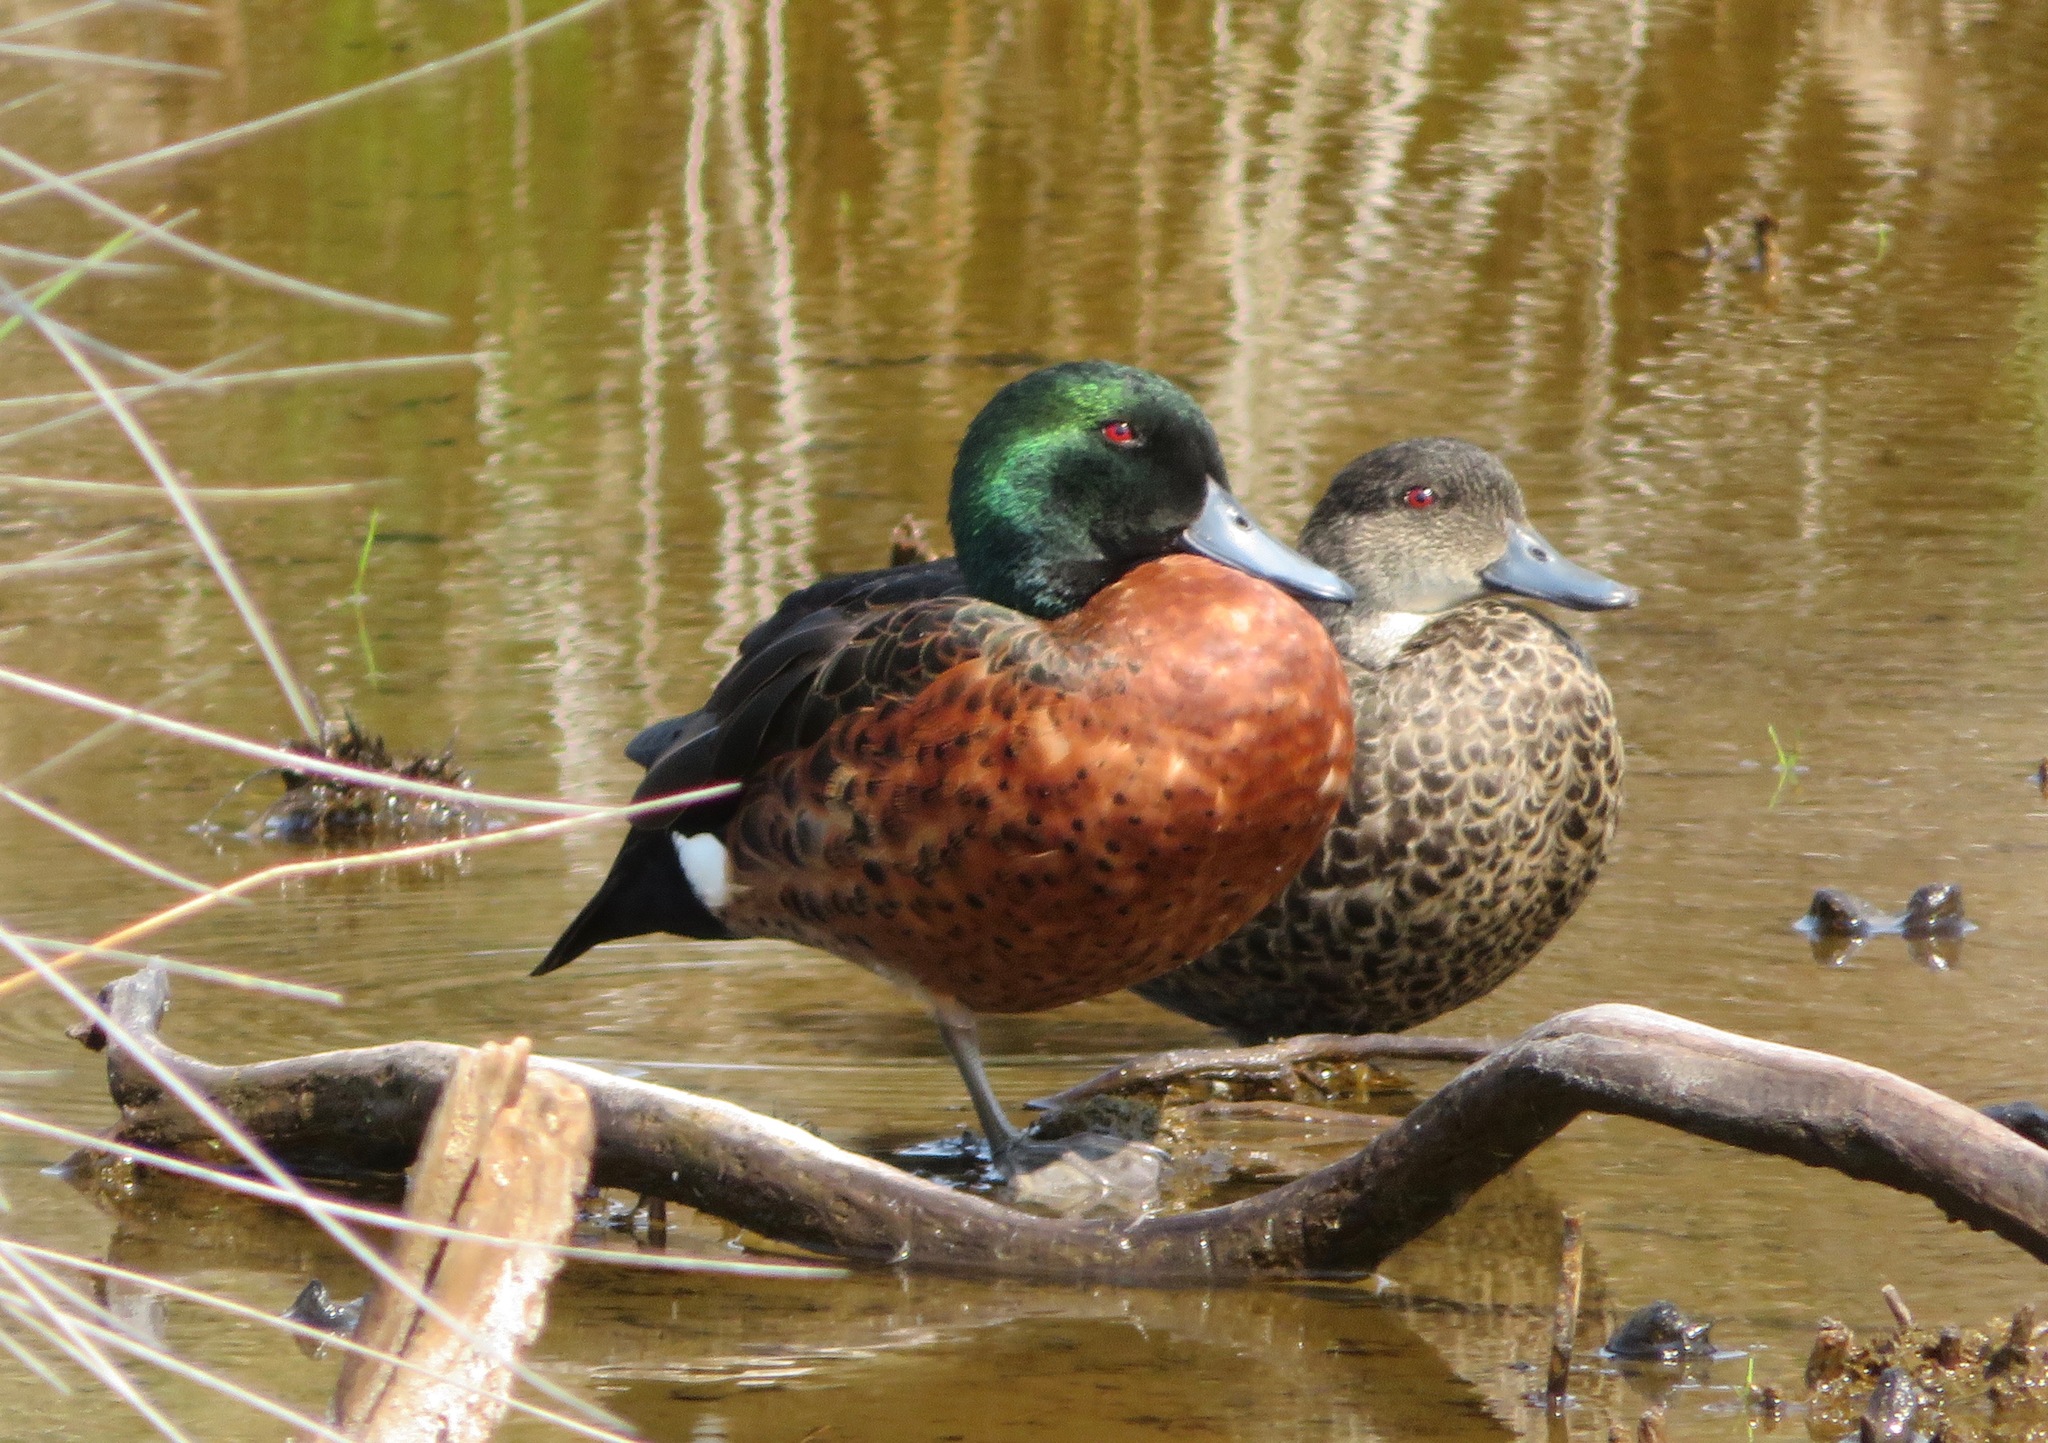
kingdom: Animalia
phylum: Chordata
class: Aves
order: Anseriformes
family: Anatidae
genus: Anas
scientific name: Anas castanea
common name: Chestnut teal
